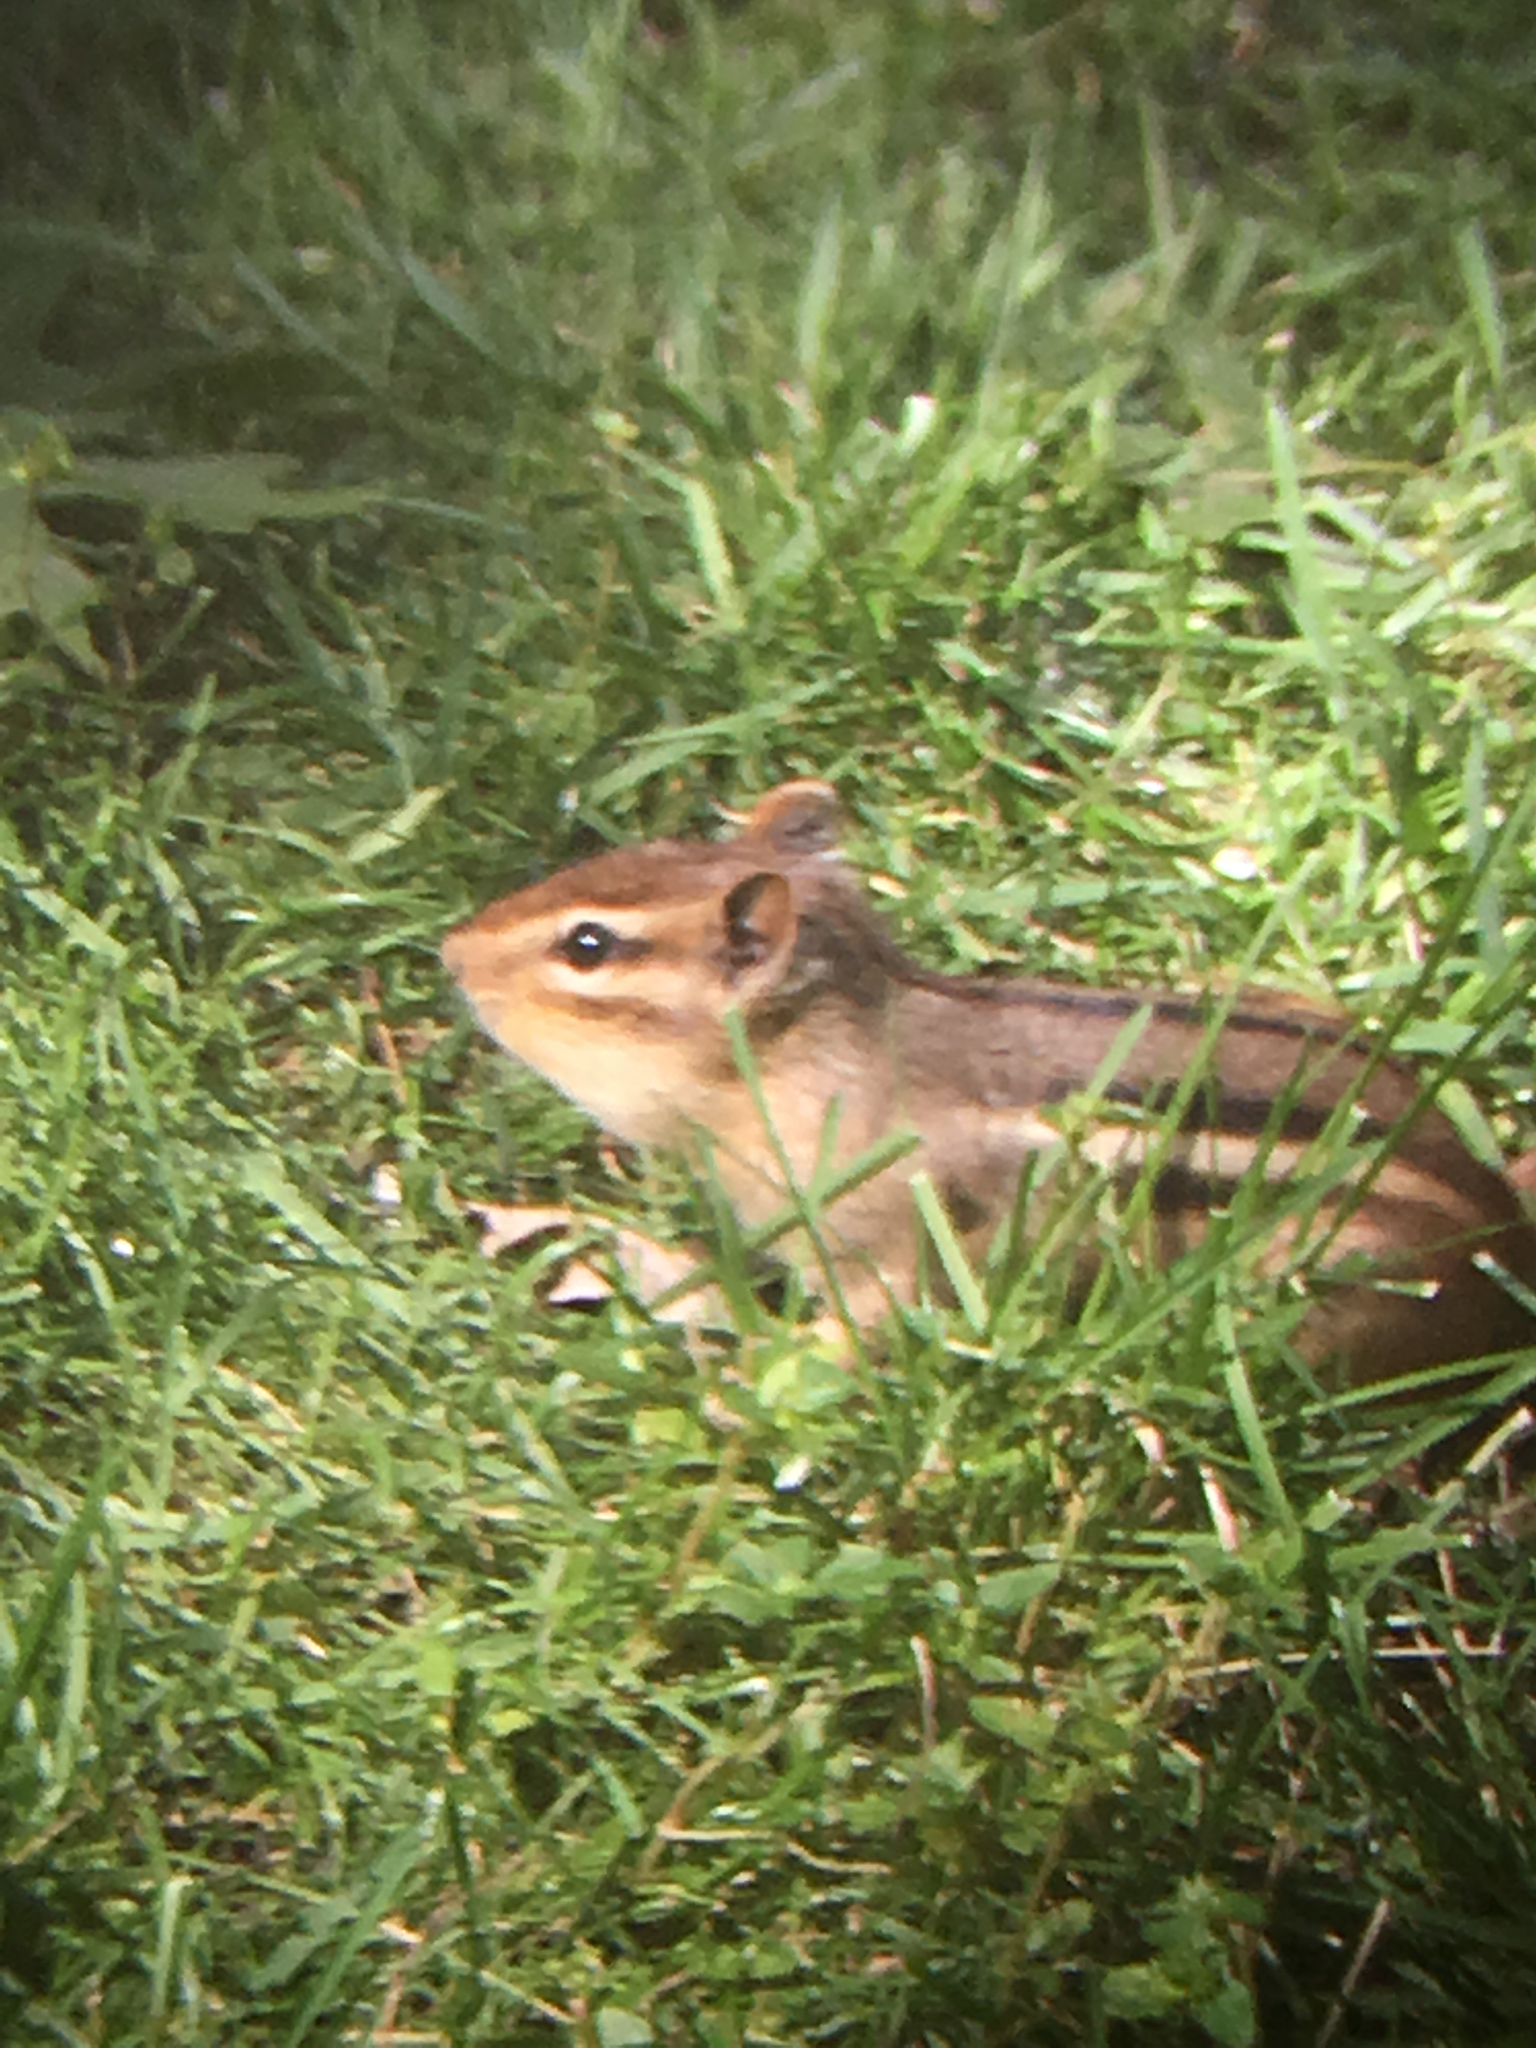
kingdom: Animalia
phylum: Chordata
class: Mammalia
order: Rodentia
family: Sciuridae
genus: Tamias
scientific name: Tamias striatus
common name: Eastern chipmunk
